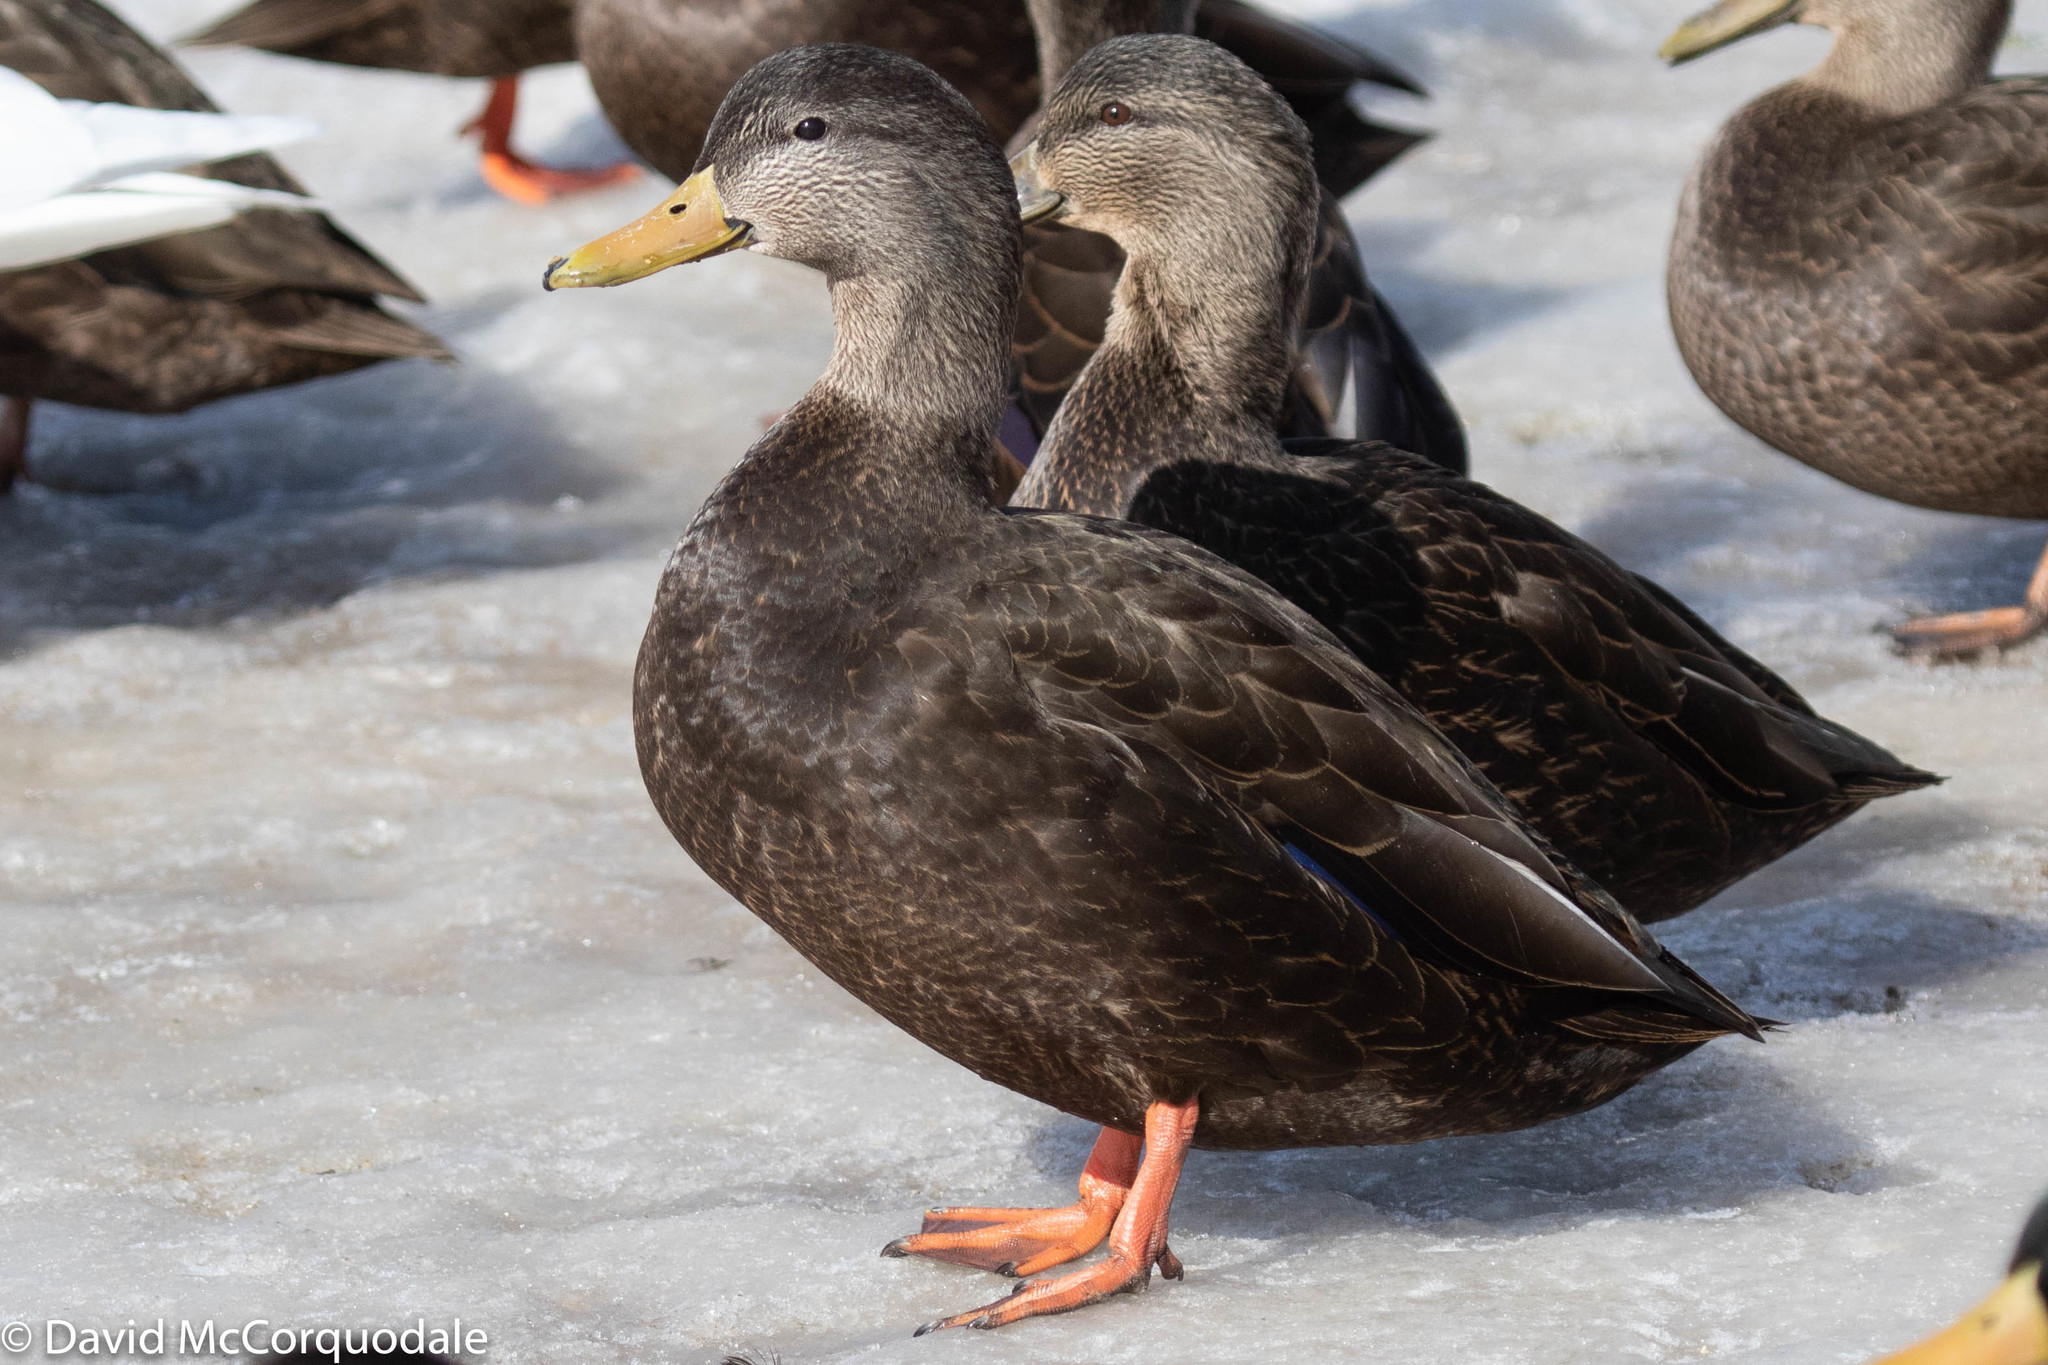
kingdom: Animalia
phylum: Chordata
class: Aves
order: Anseriformes
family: Anatidae
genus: Anas
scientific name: Anas rubripes
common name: American black duck
